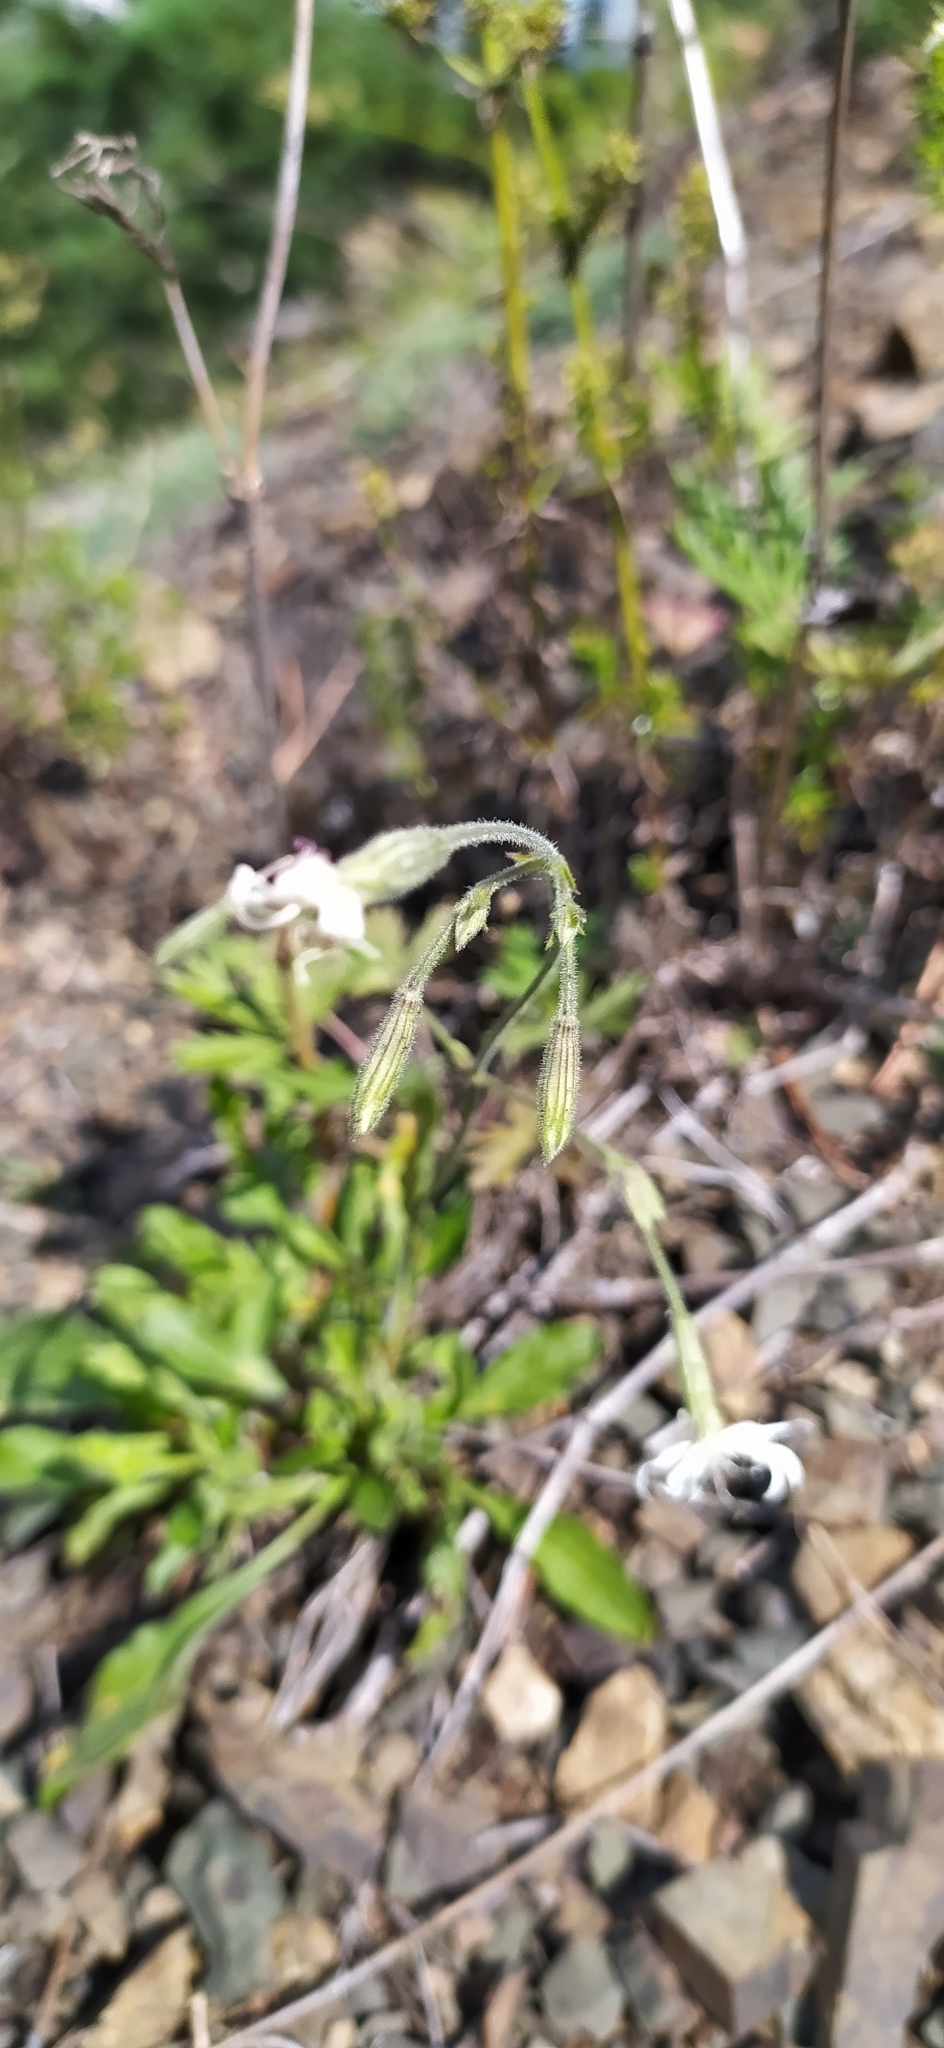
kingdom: Plantae
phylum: Tracheophyta
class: Magnoliopsida
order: Caryophyllales
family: Caryophyllaceae
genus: Silene
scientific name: Silene nutans
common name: Nottingham catchfly
